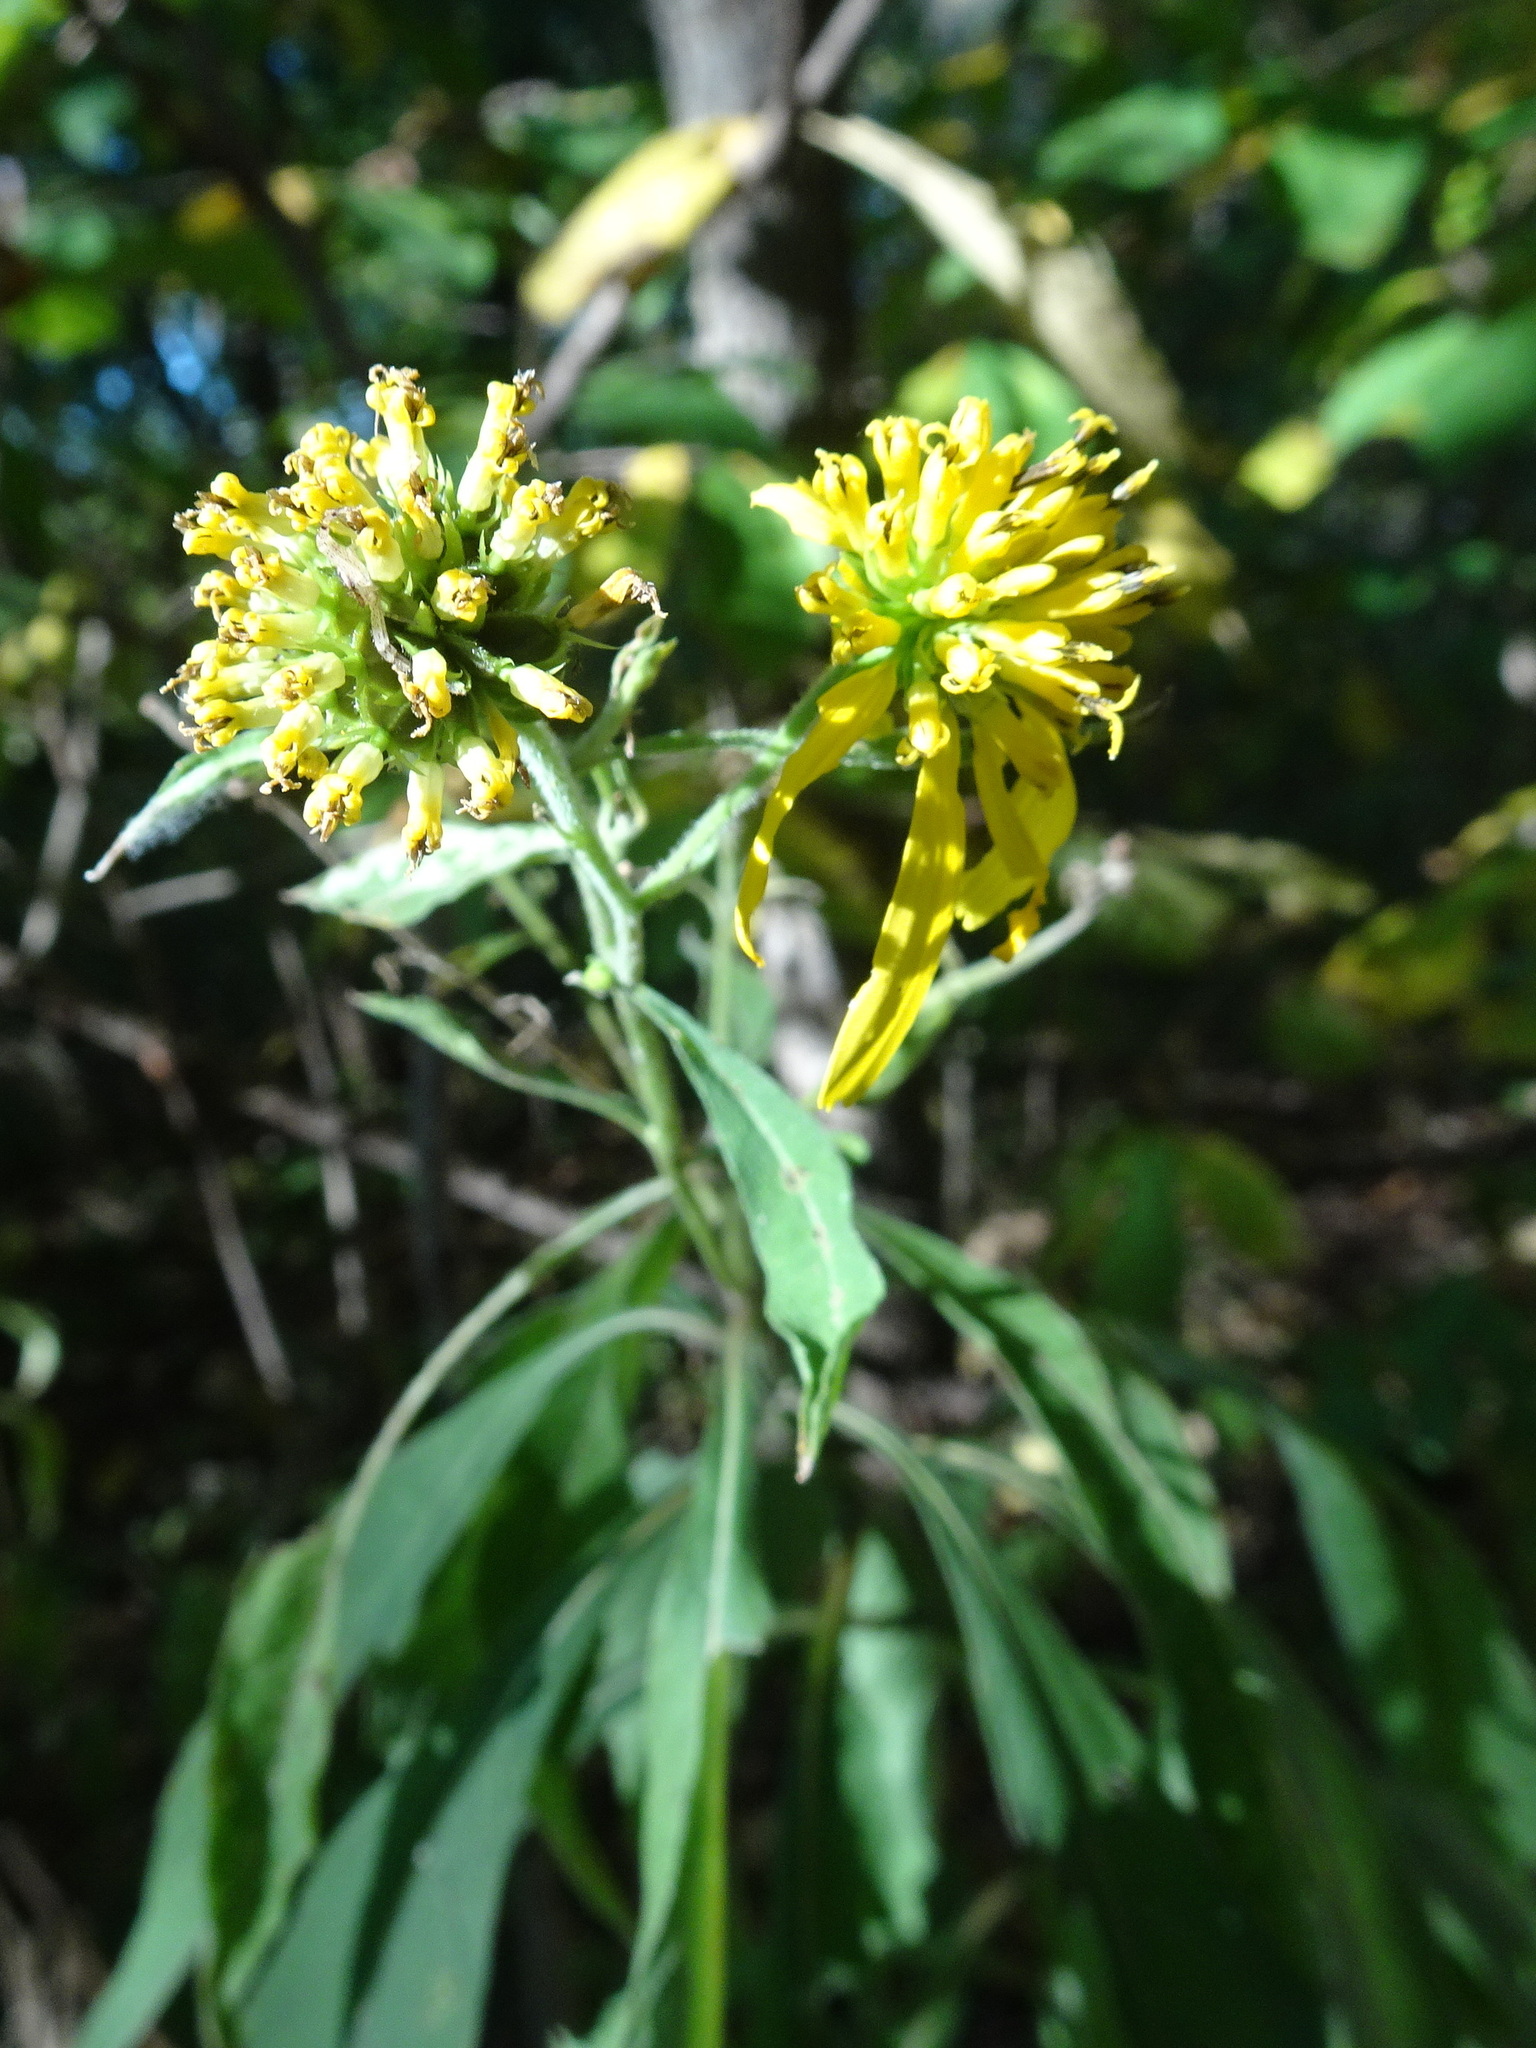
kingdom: Plantae
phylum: Tracheophyta
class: Magnoliopsida
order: Asterales
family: Asteraceae
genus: Verbesina
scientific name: Verbesina alternifolia
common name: Wingstem
